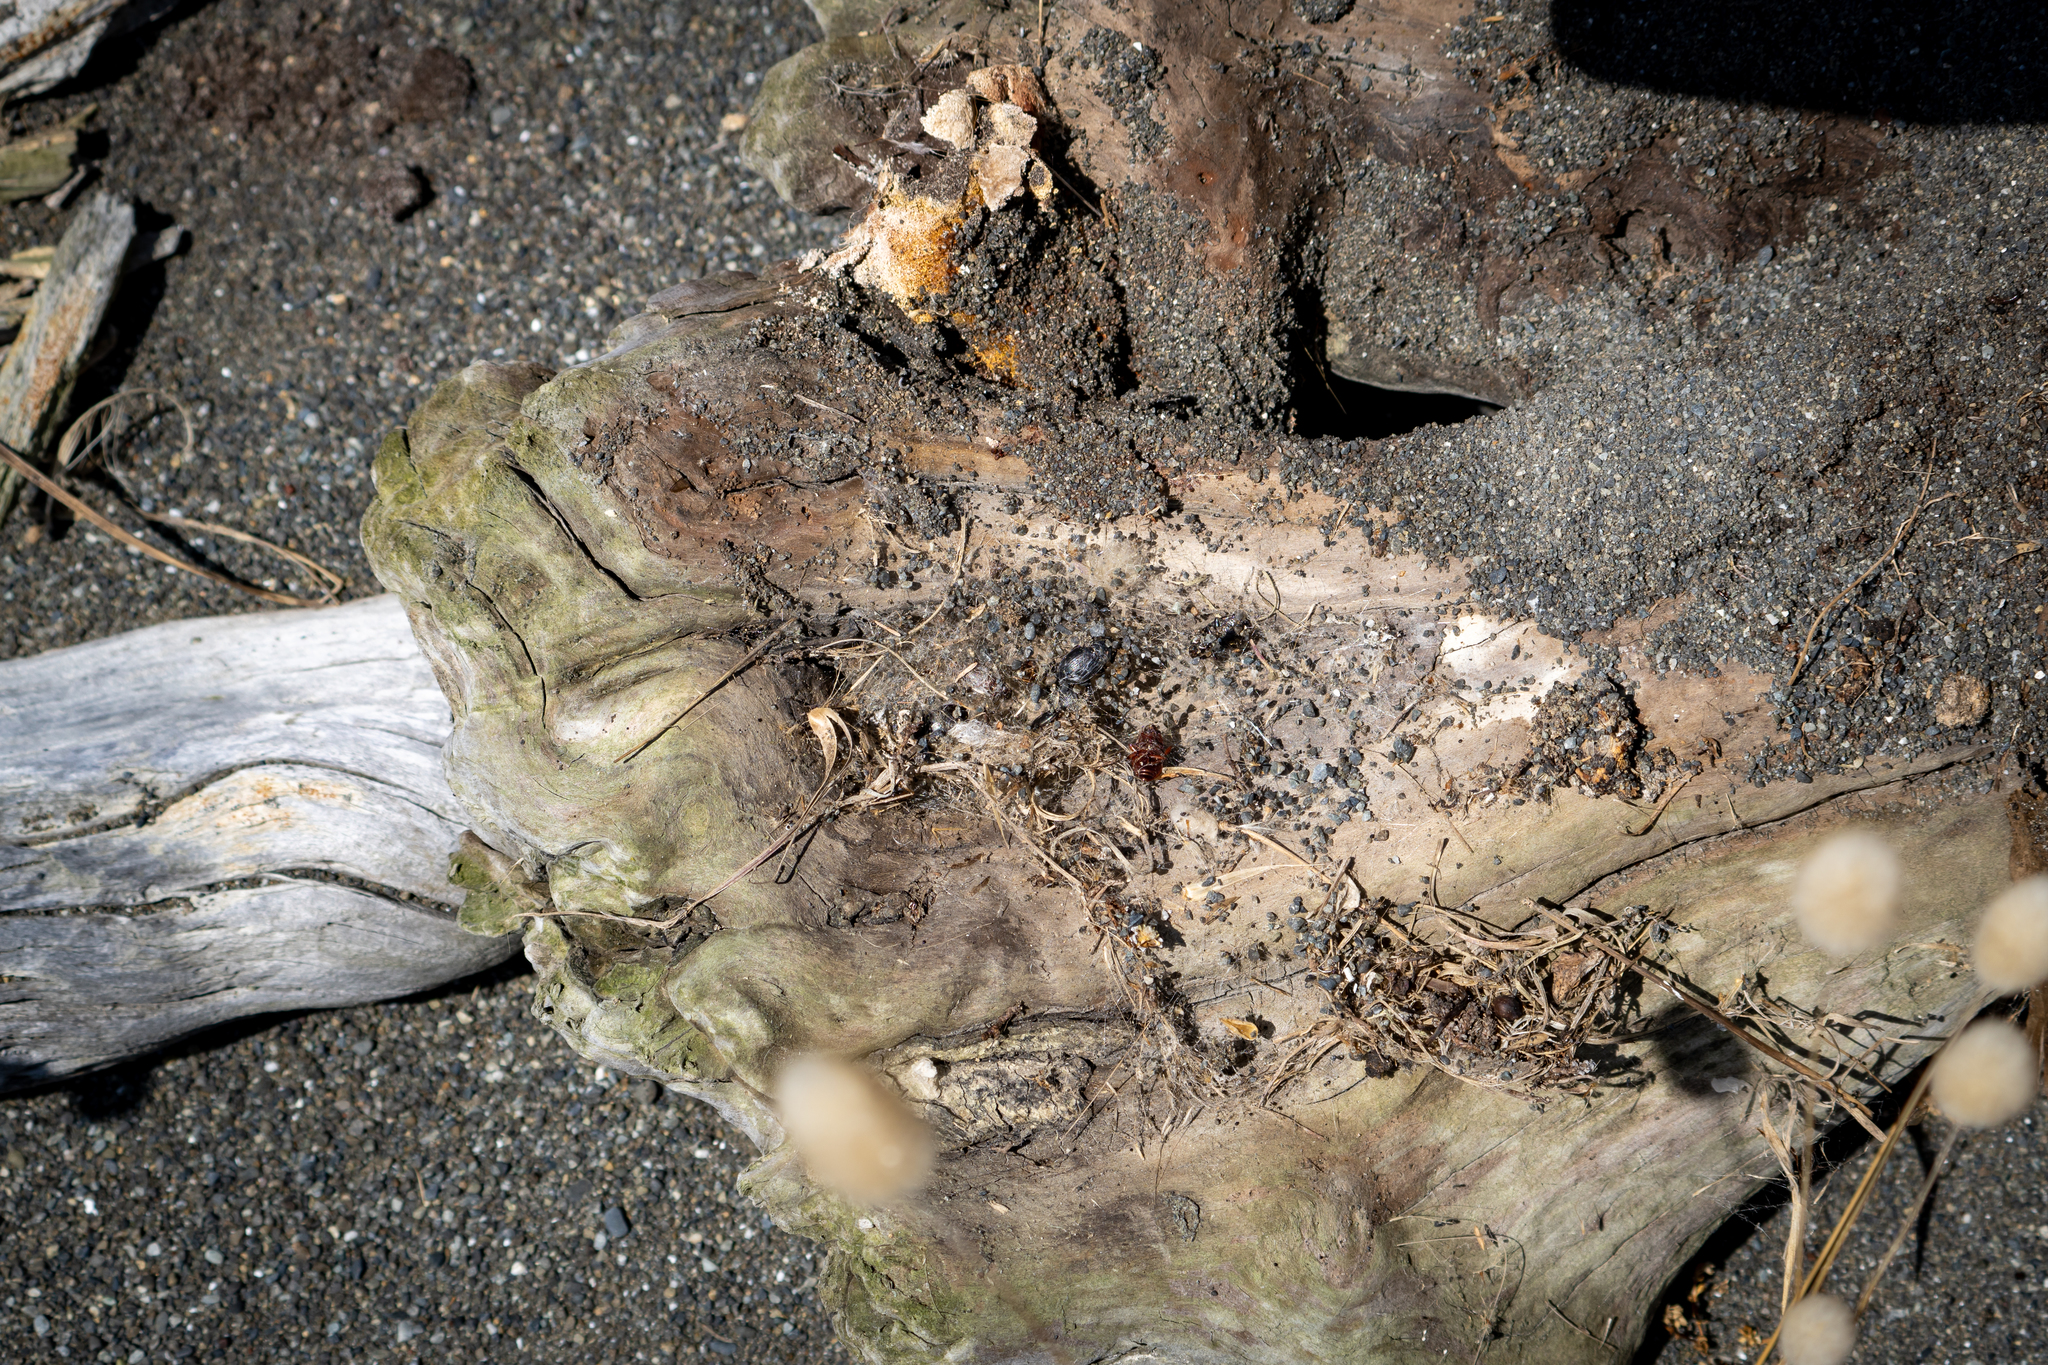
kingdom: Animalia
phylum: Arthropoda
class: Arachnida
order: Araneae
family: Theridiidae
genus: Latrodectus
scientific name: Latrodectus katipo
